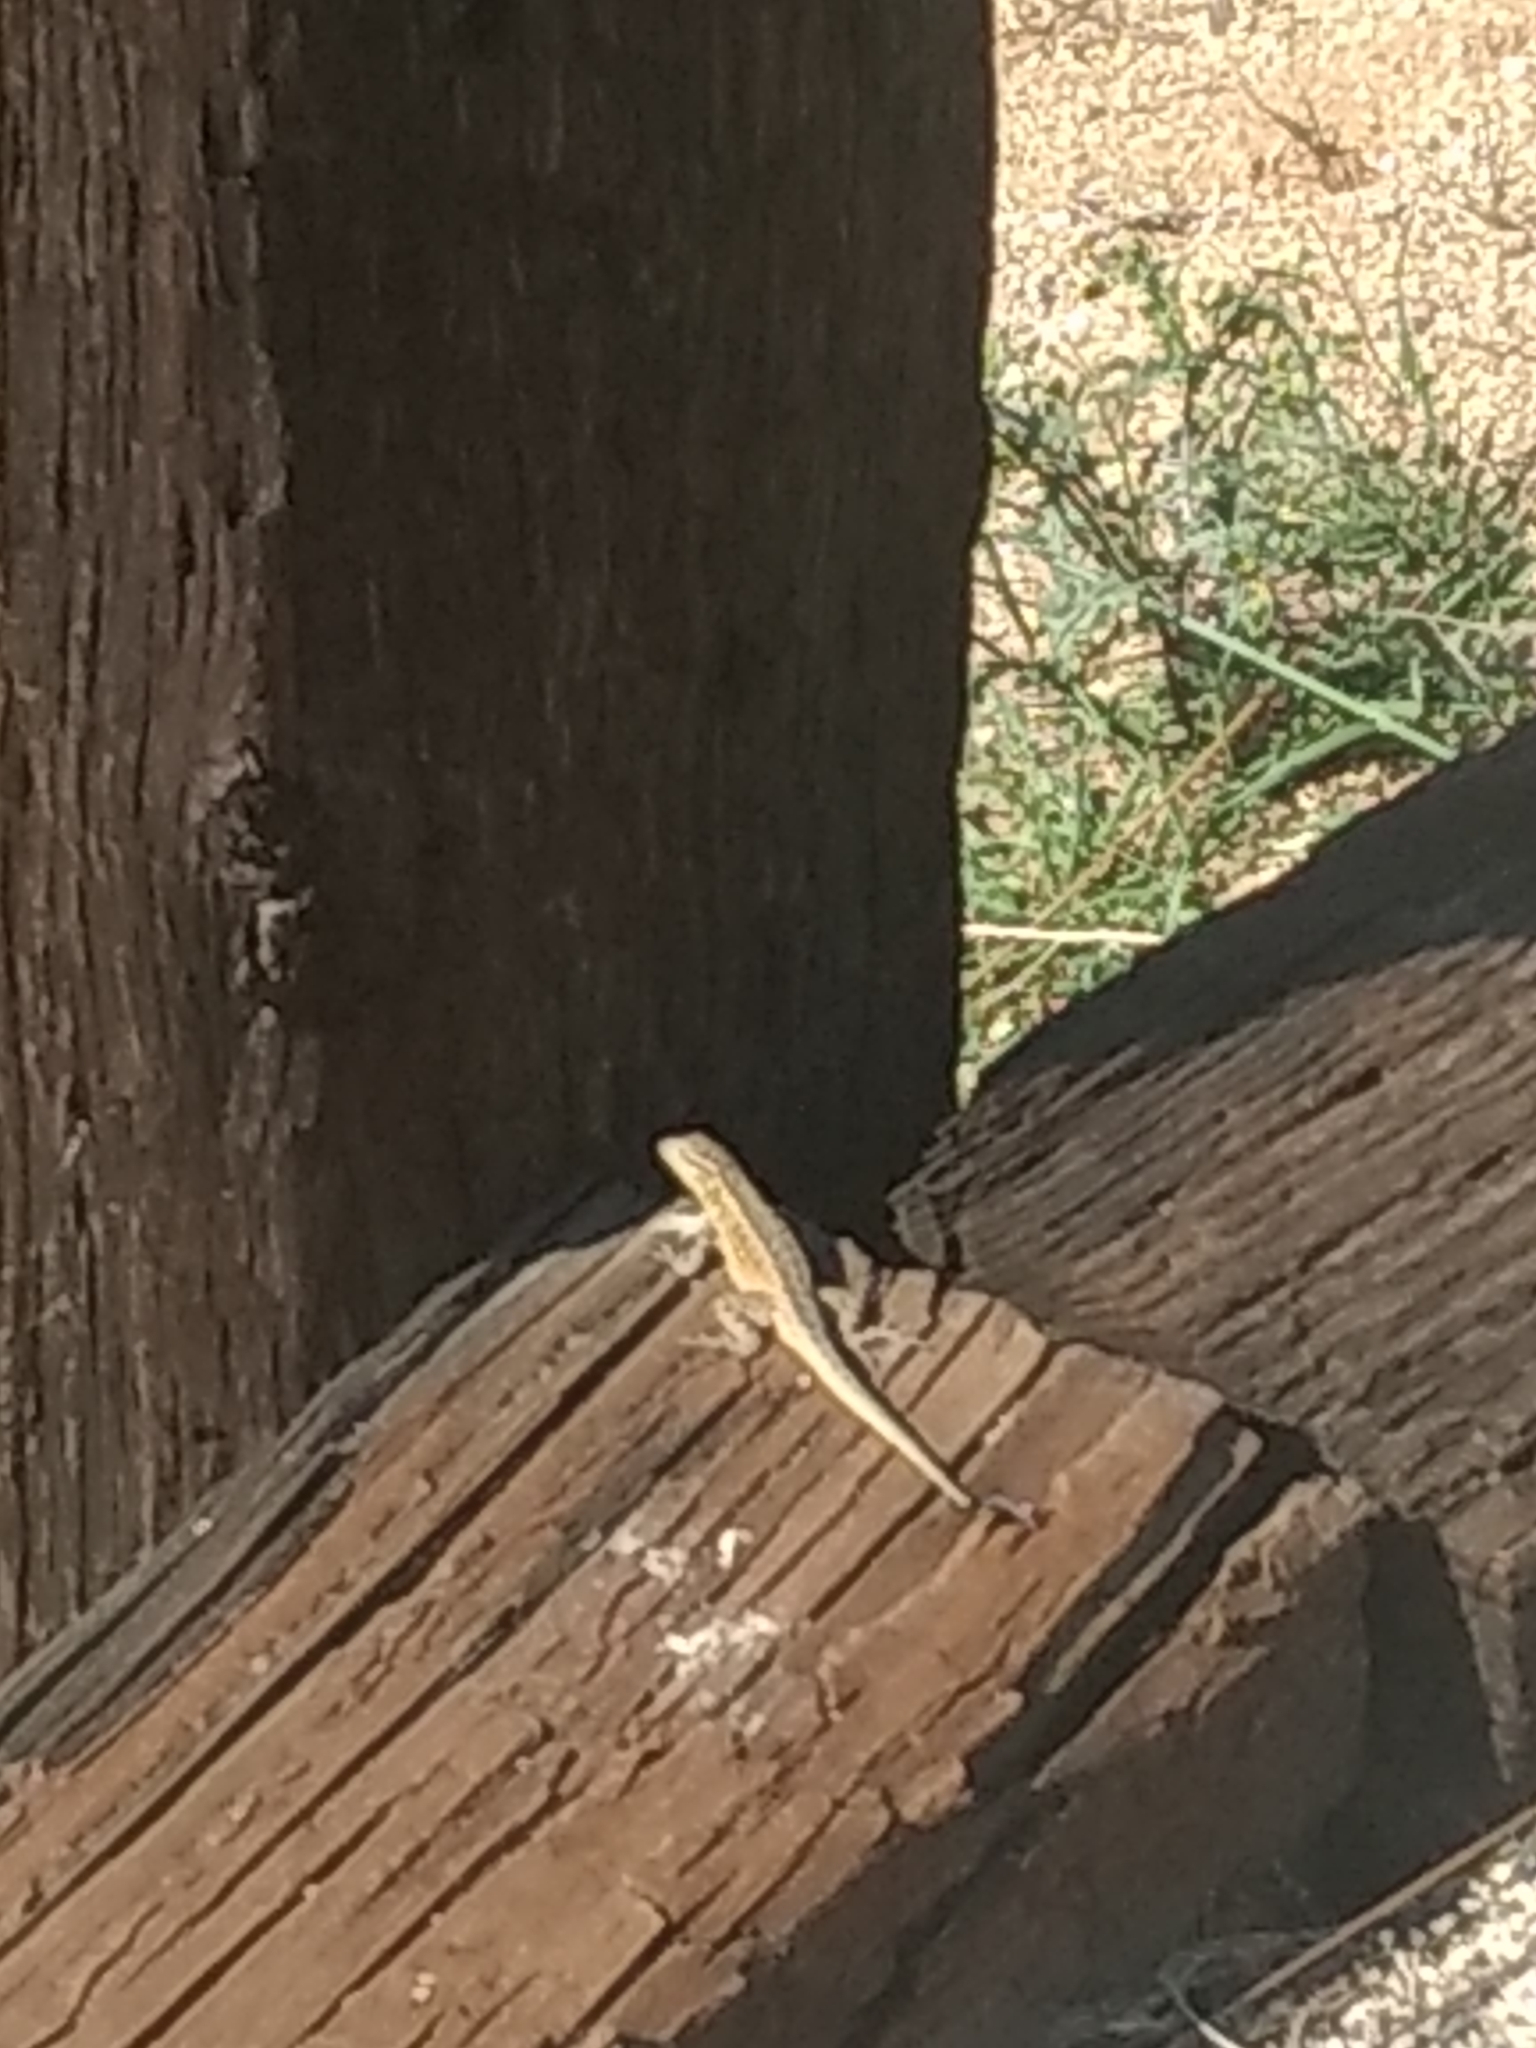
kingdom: Animalia
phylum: Chordata
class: Squamata
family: Phrynosomatidae
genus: Uta
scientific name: Uta stansburiana
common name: Side-blotched lizard
